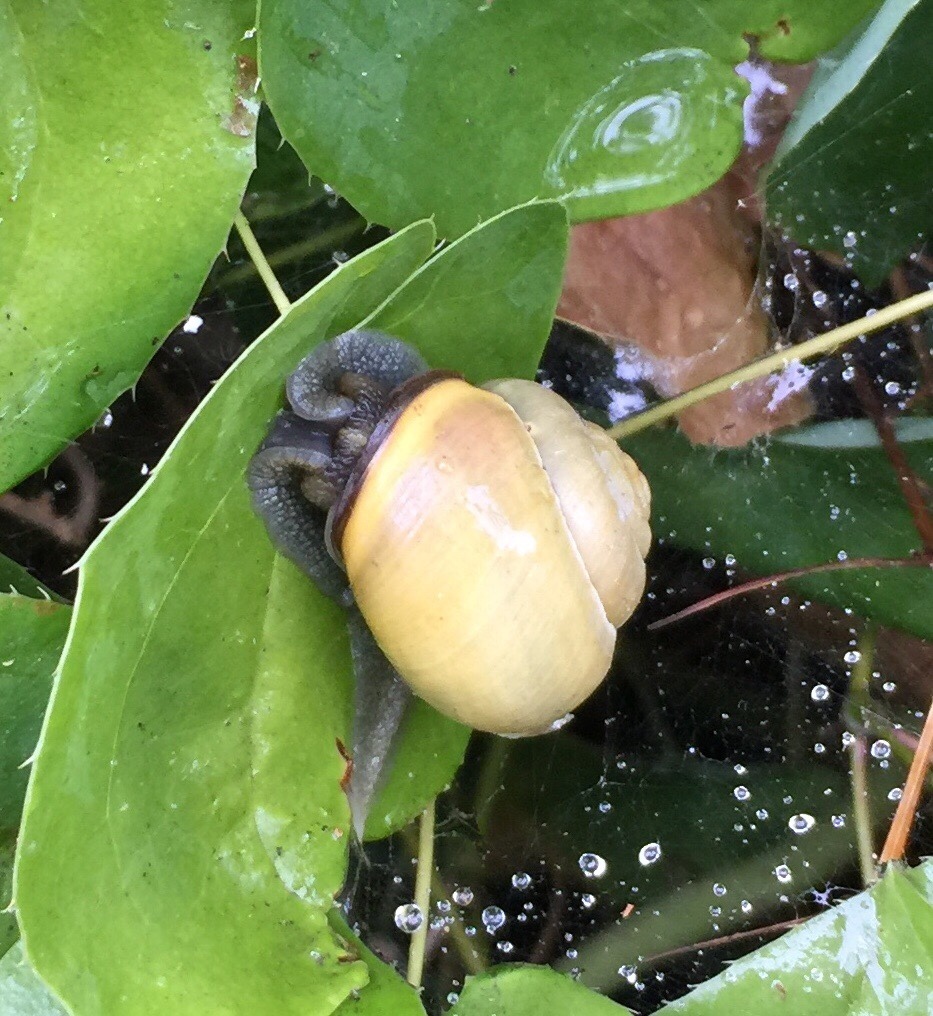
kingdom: Animalia
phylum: Mollusca
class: Gastropoda
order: Stylommatophora
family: Helicidae
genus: Cepaea
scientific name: Cepaea nemoralis
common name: Grovesnail
